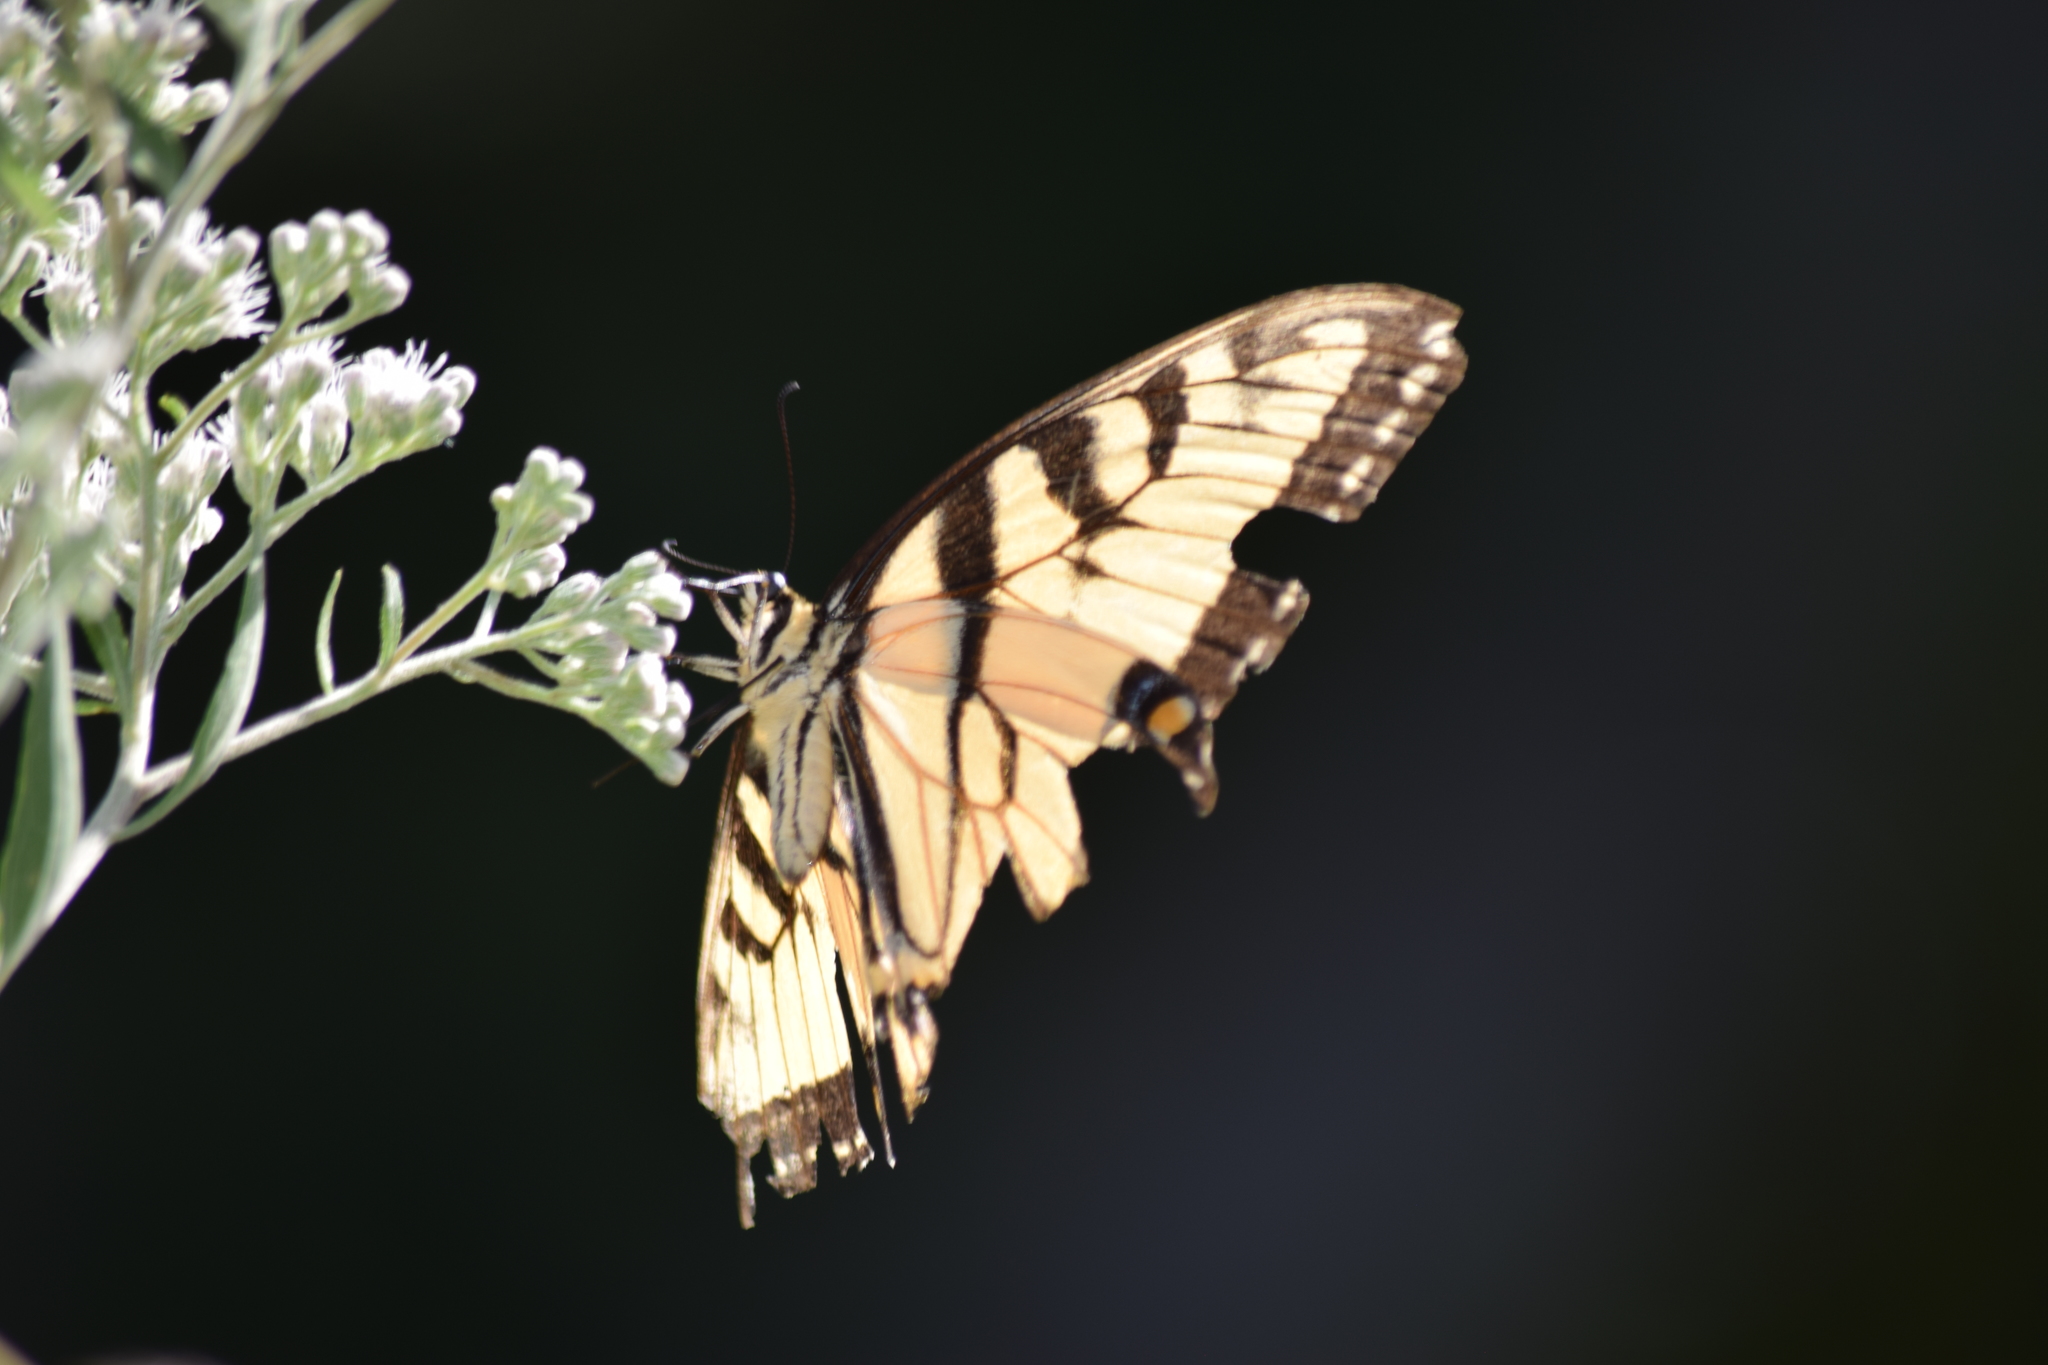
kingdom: Animalia
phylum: Arthropoda
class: Insecta
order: Lepidoptera
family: Papilionidae
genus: Papilio
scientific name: Papilio glaucus
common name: Tiger swallowtail
